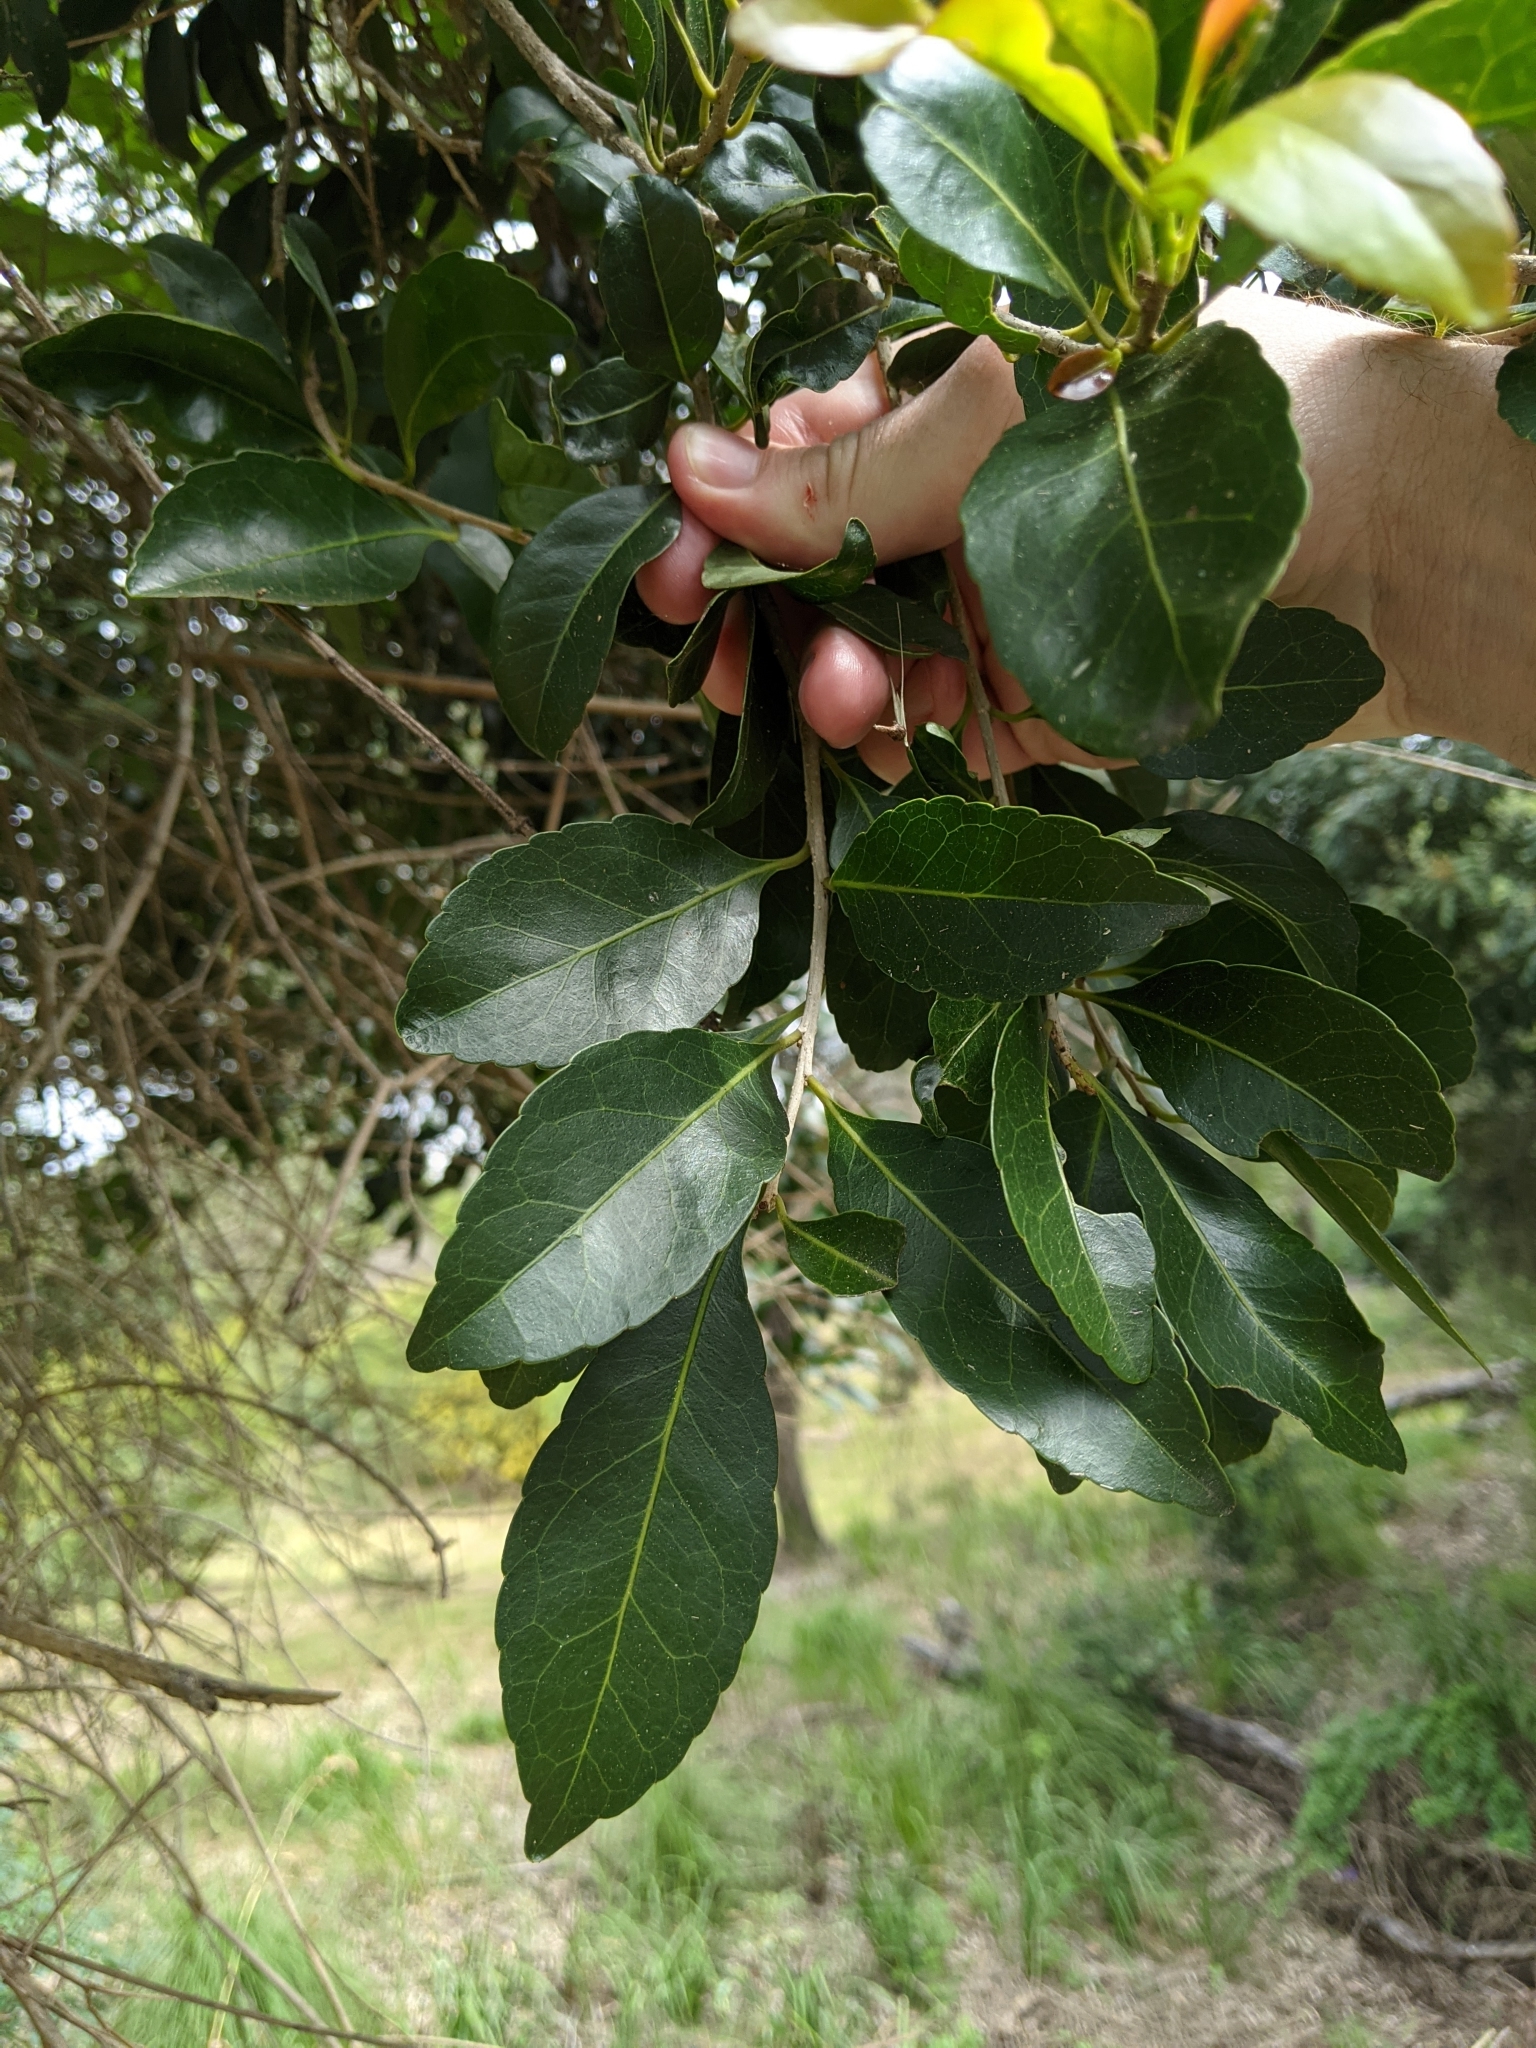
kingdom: Plantae
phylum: Tracheophyta
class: Magnoliopsida
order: Oxalidales
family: Elaeocarpaceae
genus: Elaeocarpus
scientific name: Elaeocarpus obovatus
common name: Freckled oliveberry
